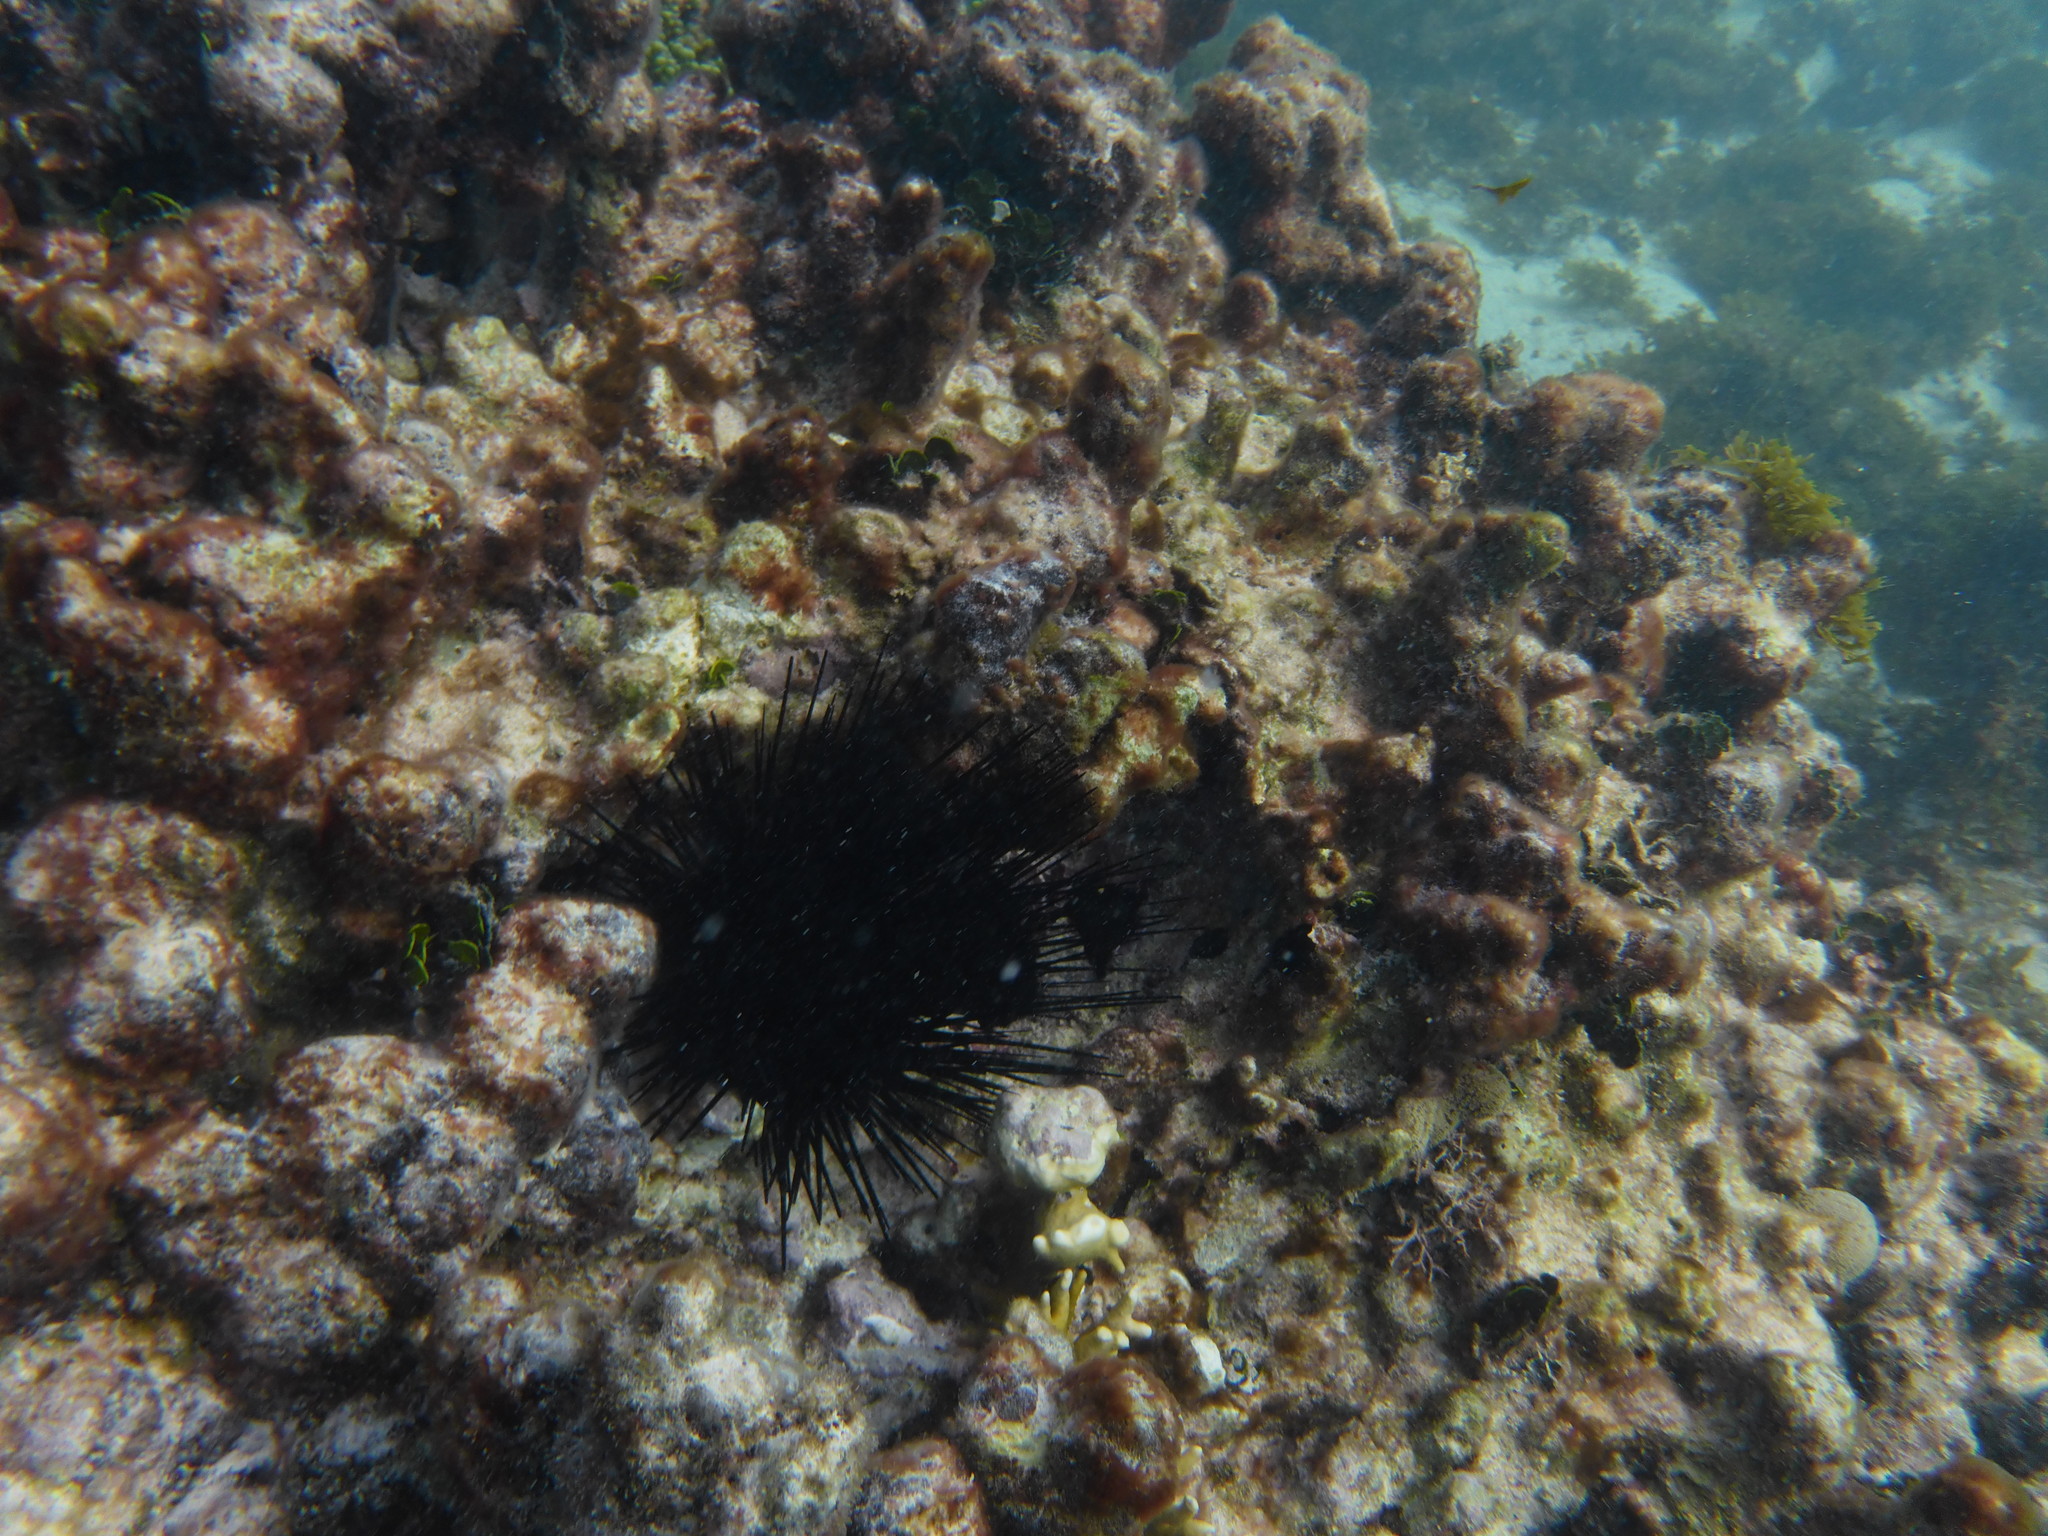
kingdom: Animalia
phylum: Echinodermata
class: Echinoidea
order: Diadematoida
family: Diadematidae
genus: Diadema
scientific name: Diadema antillarum
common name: Spiny urchin
